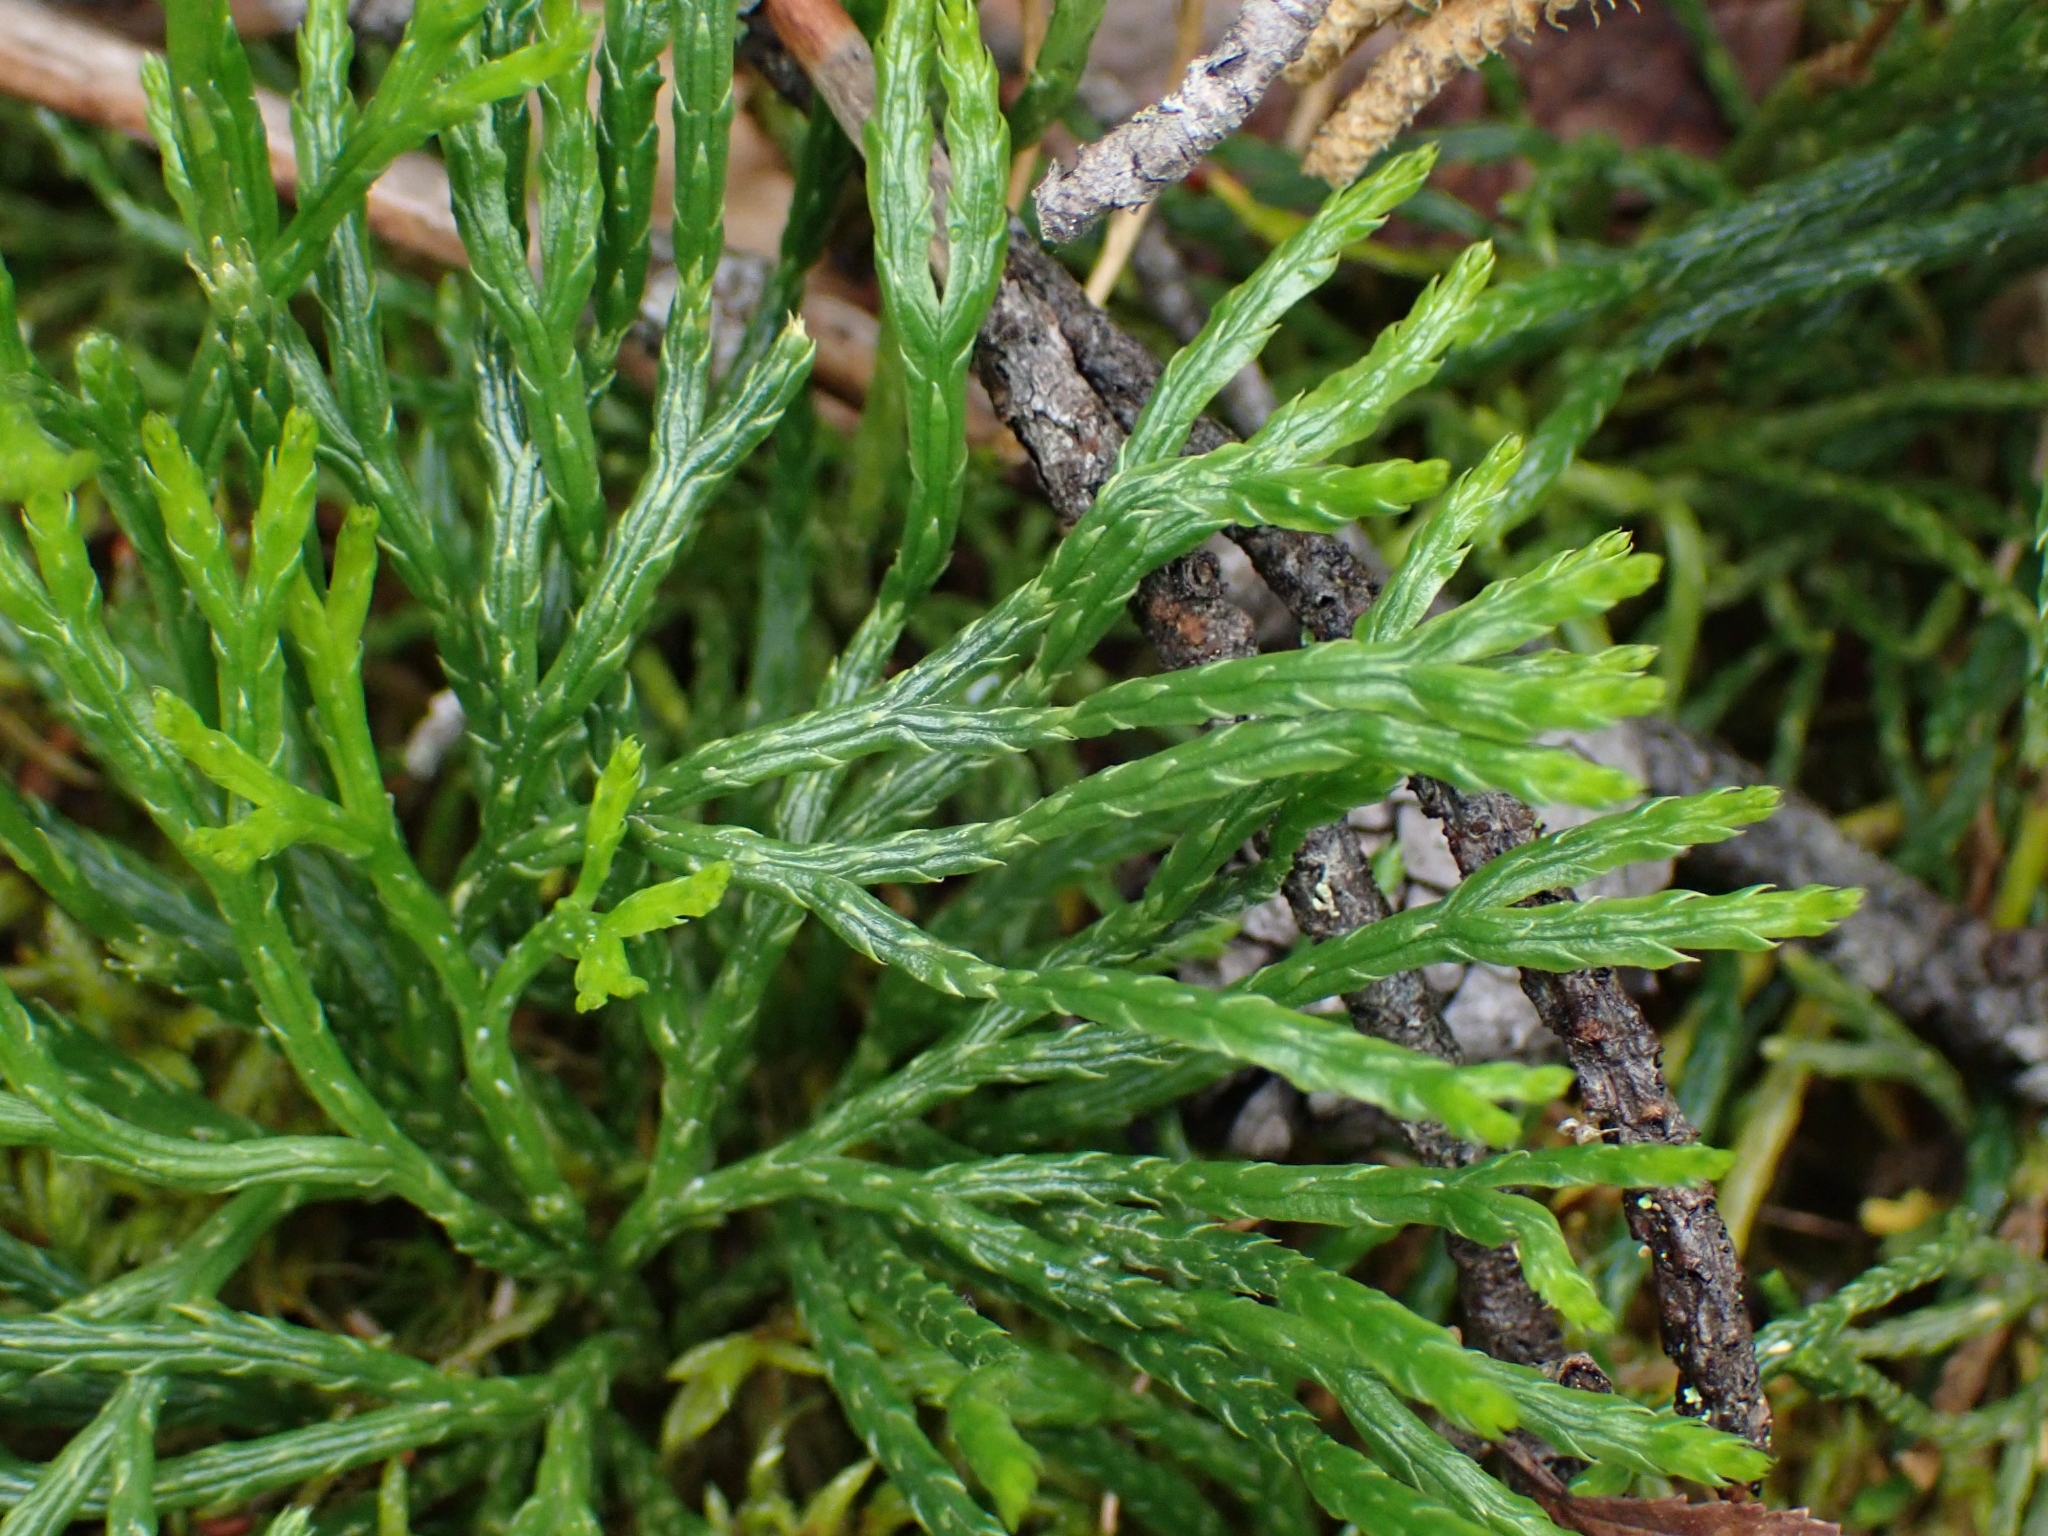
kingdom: Plantae
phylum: Tracheophyta
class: Lycopodiopsida
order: Lycopodiales
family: Lycopodiaceae
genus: Diphasiastrum
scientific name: Diphasiastrum complanatum
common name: Northern running-pine
